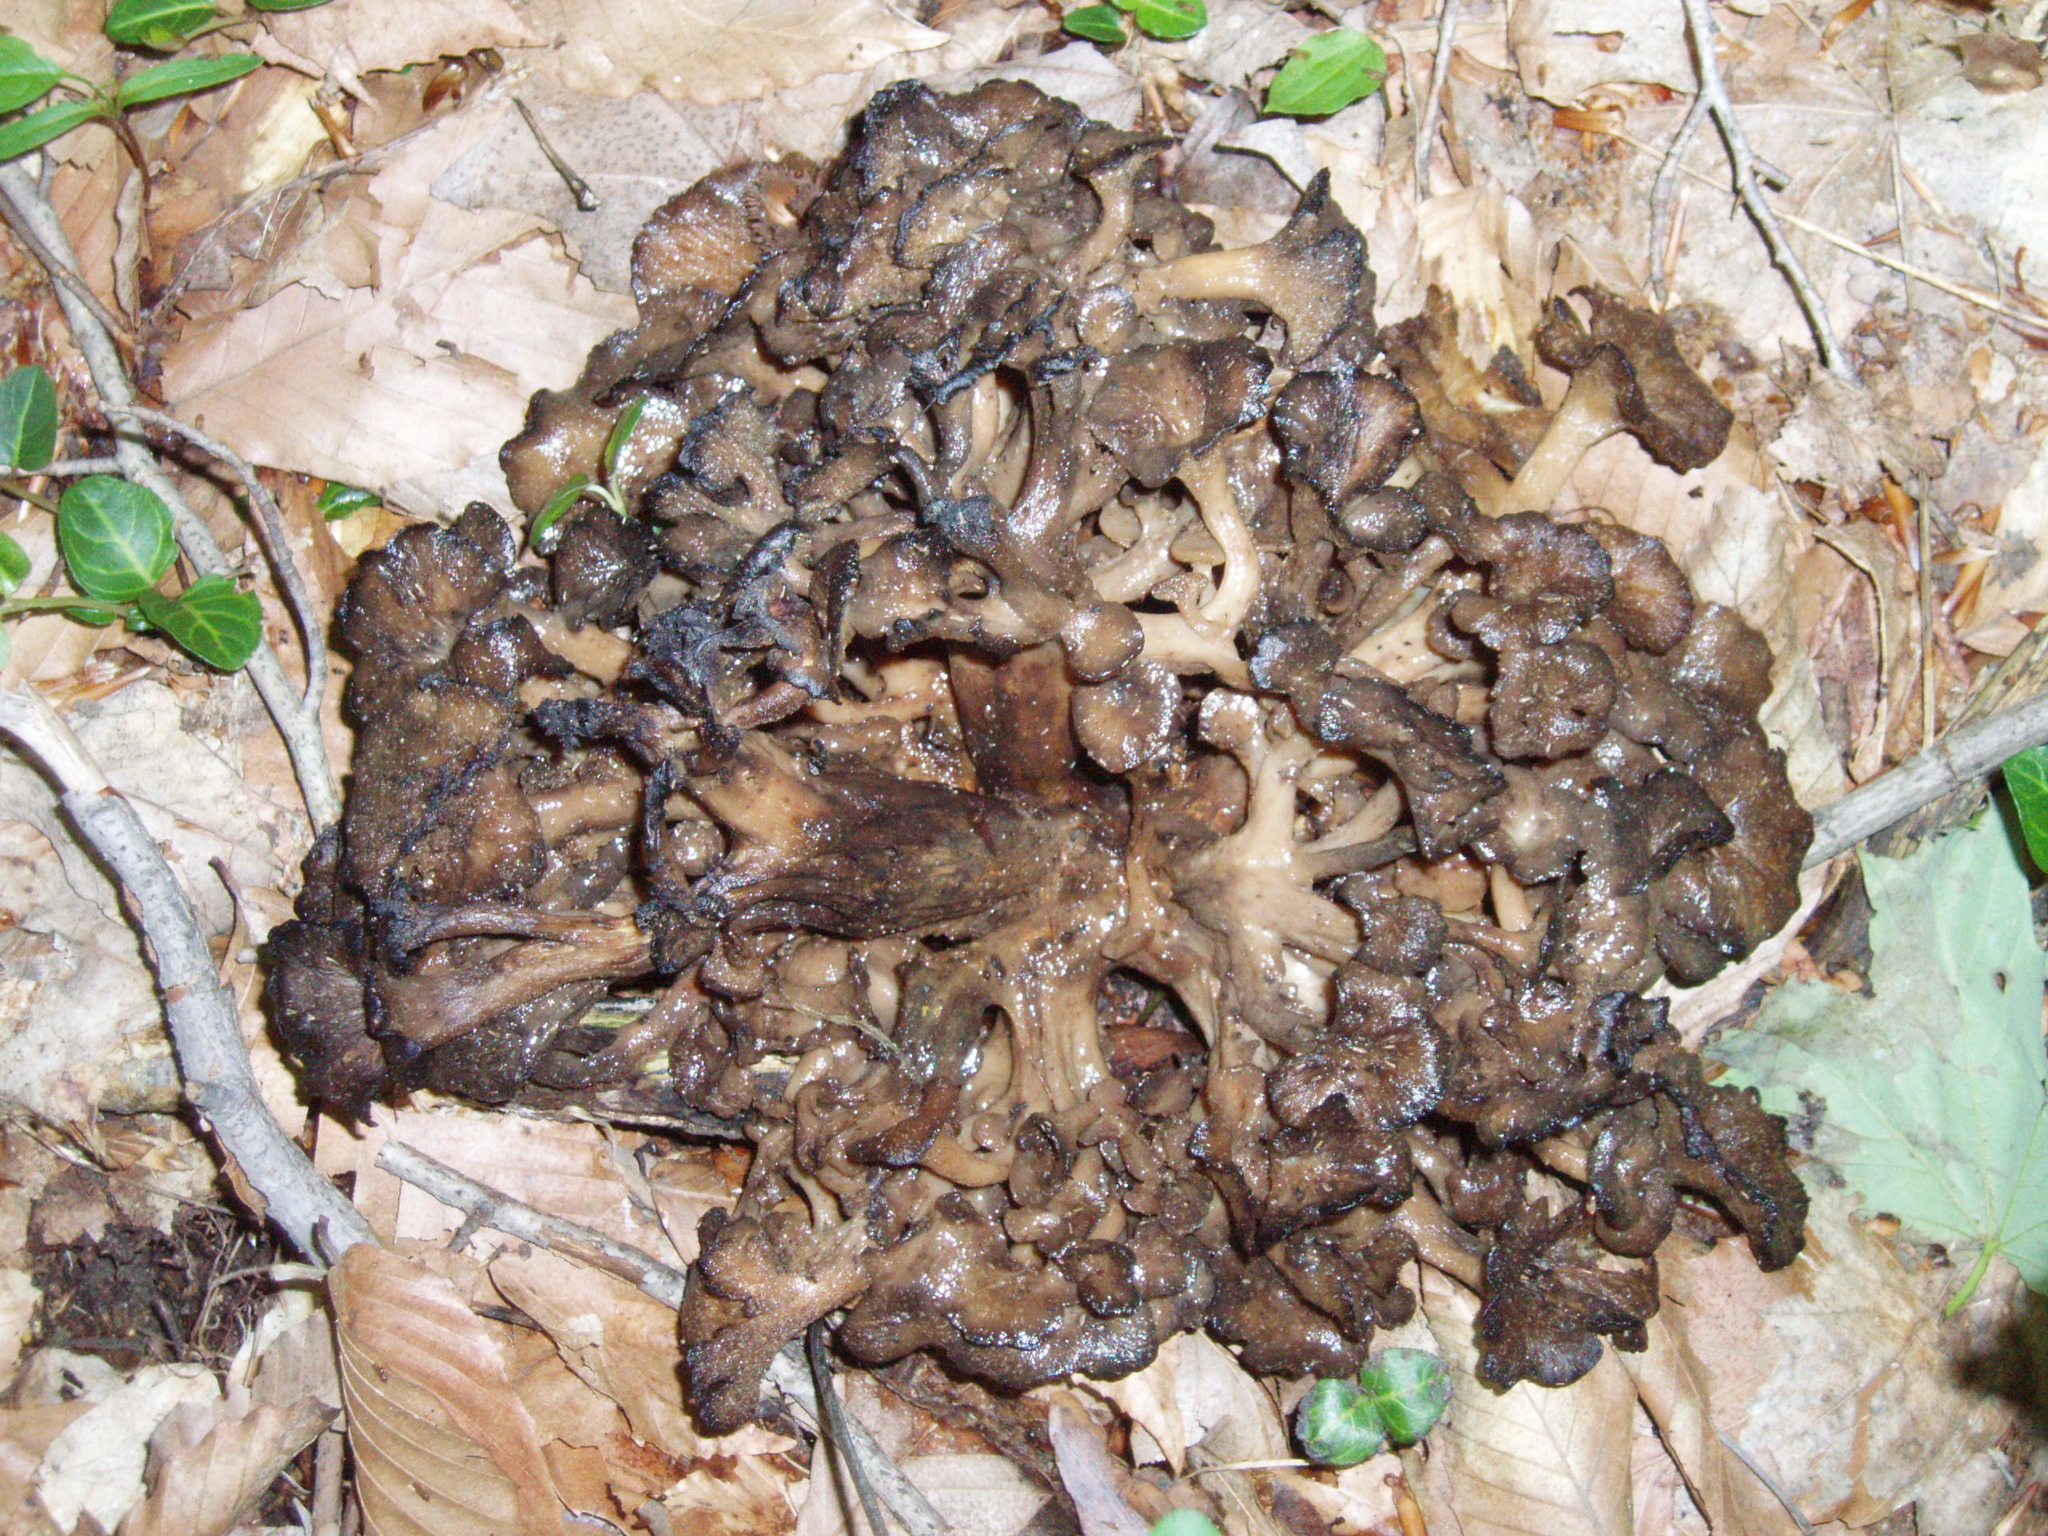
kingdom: Fungi
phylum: Basidiomycota
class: Agaricomycetes
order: Polyporales
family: Polyporaceae
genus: Polyporus
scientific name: Polyporus umbellatus
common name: Umbrella polypore
